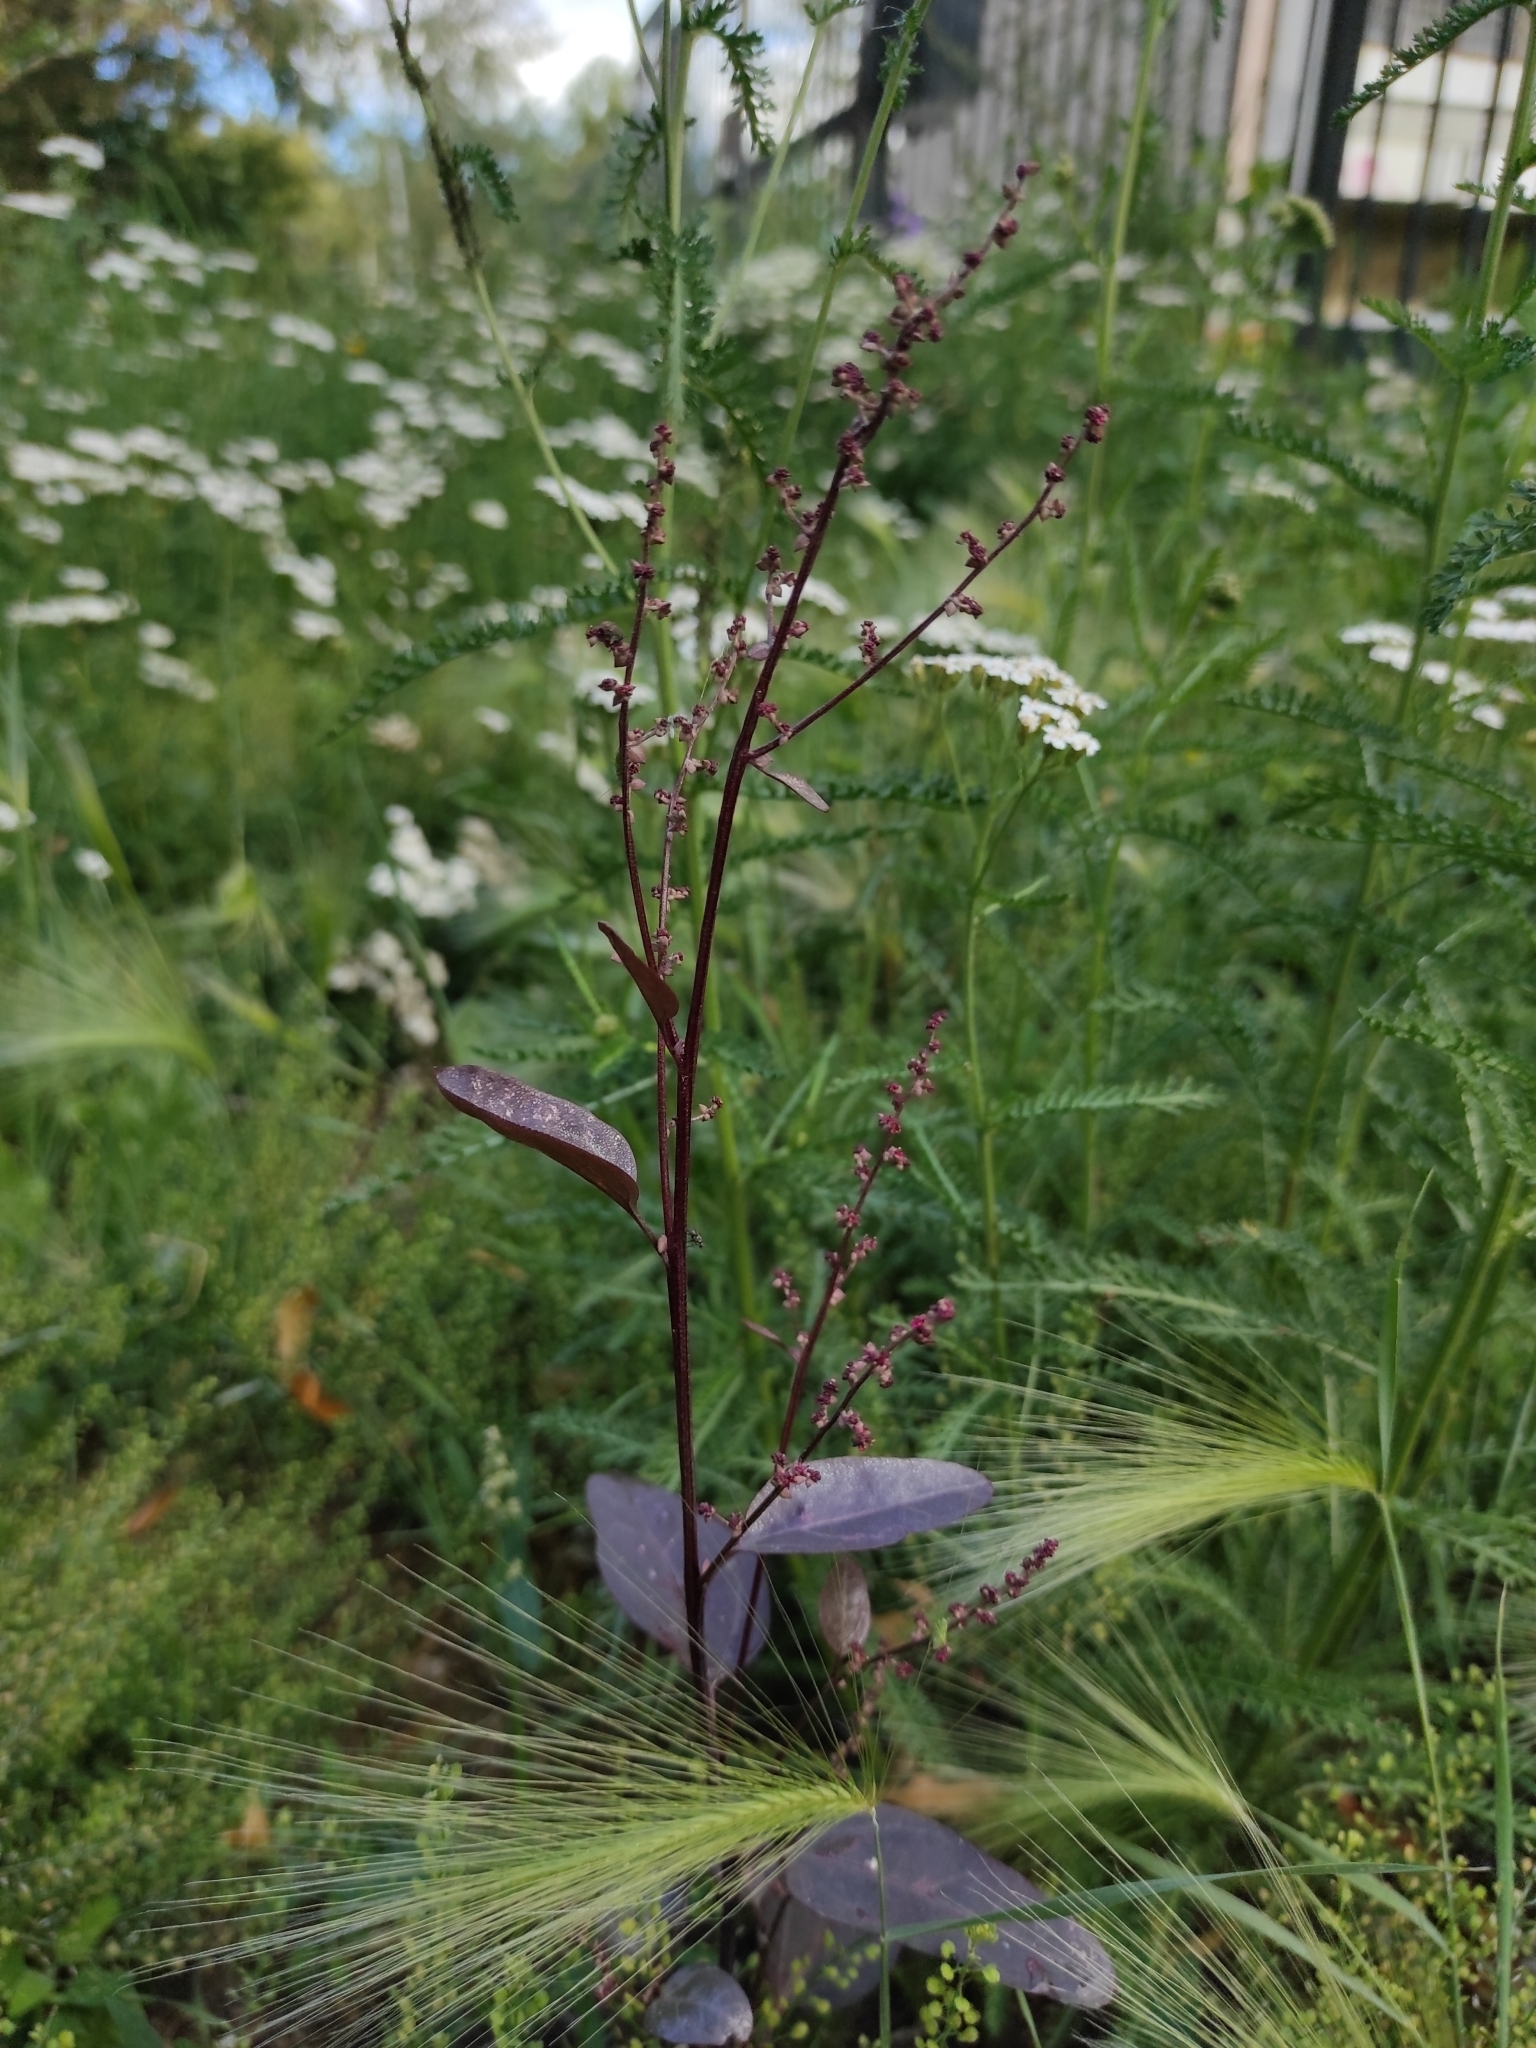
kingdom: Plantae
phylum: Tracheophyta
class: Magnoliopsida
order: Caryophyllales
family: Amaranthaceae
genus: Atriplex
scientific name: Atriplex hortensis
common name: Garden orache
